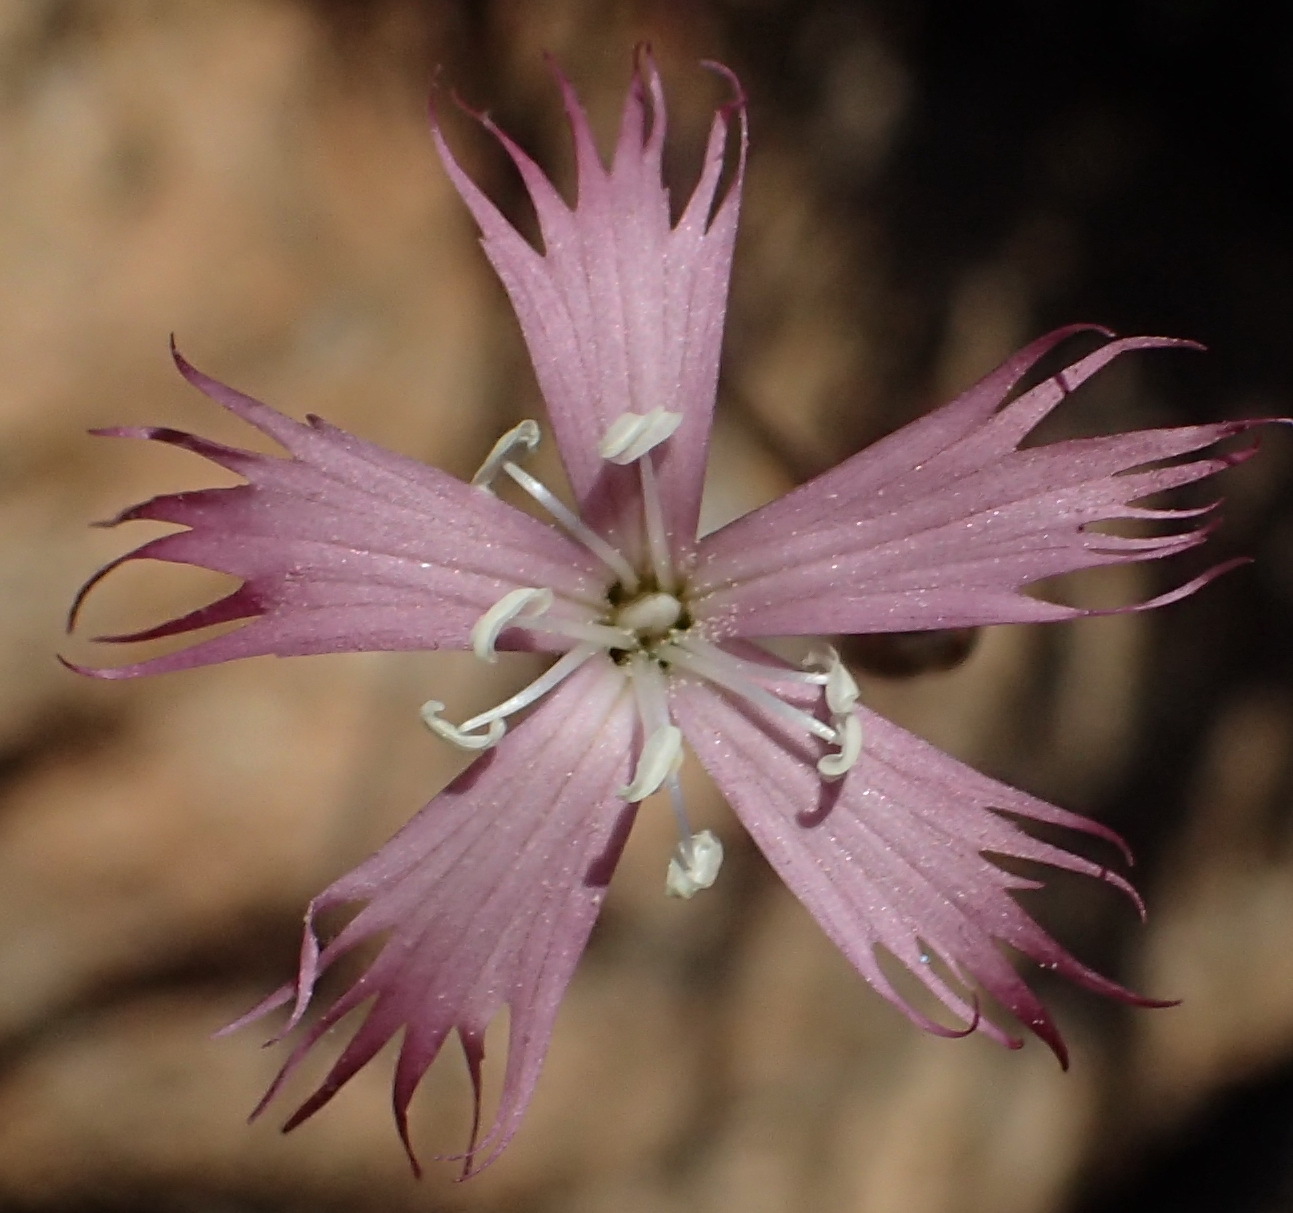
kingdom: Plantae
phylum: Tracheophyta
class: Magnoliopsida
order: Caryophyllales
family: Caryophyllaceae
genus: Dianthus
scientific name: Dianthus bolusii
